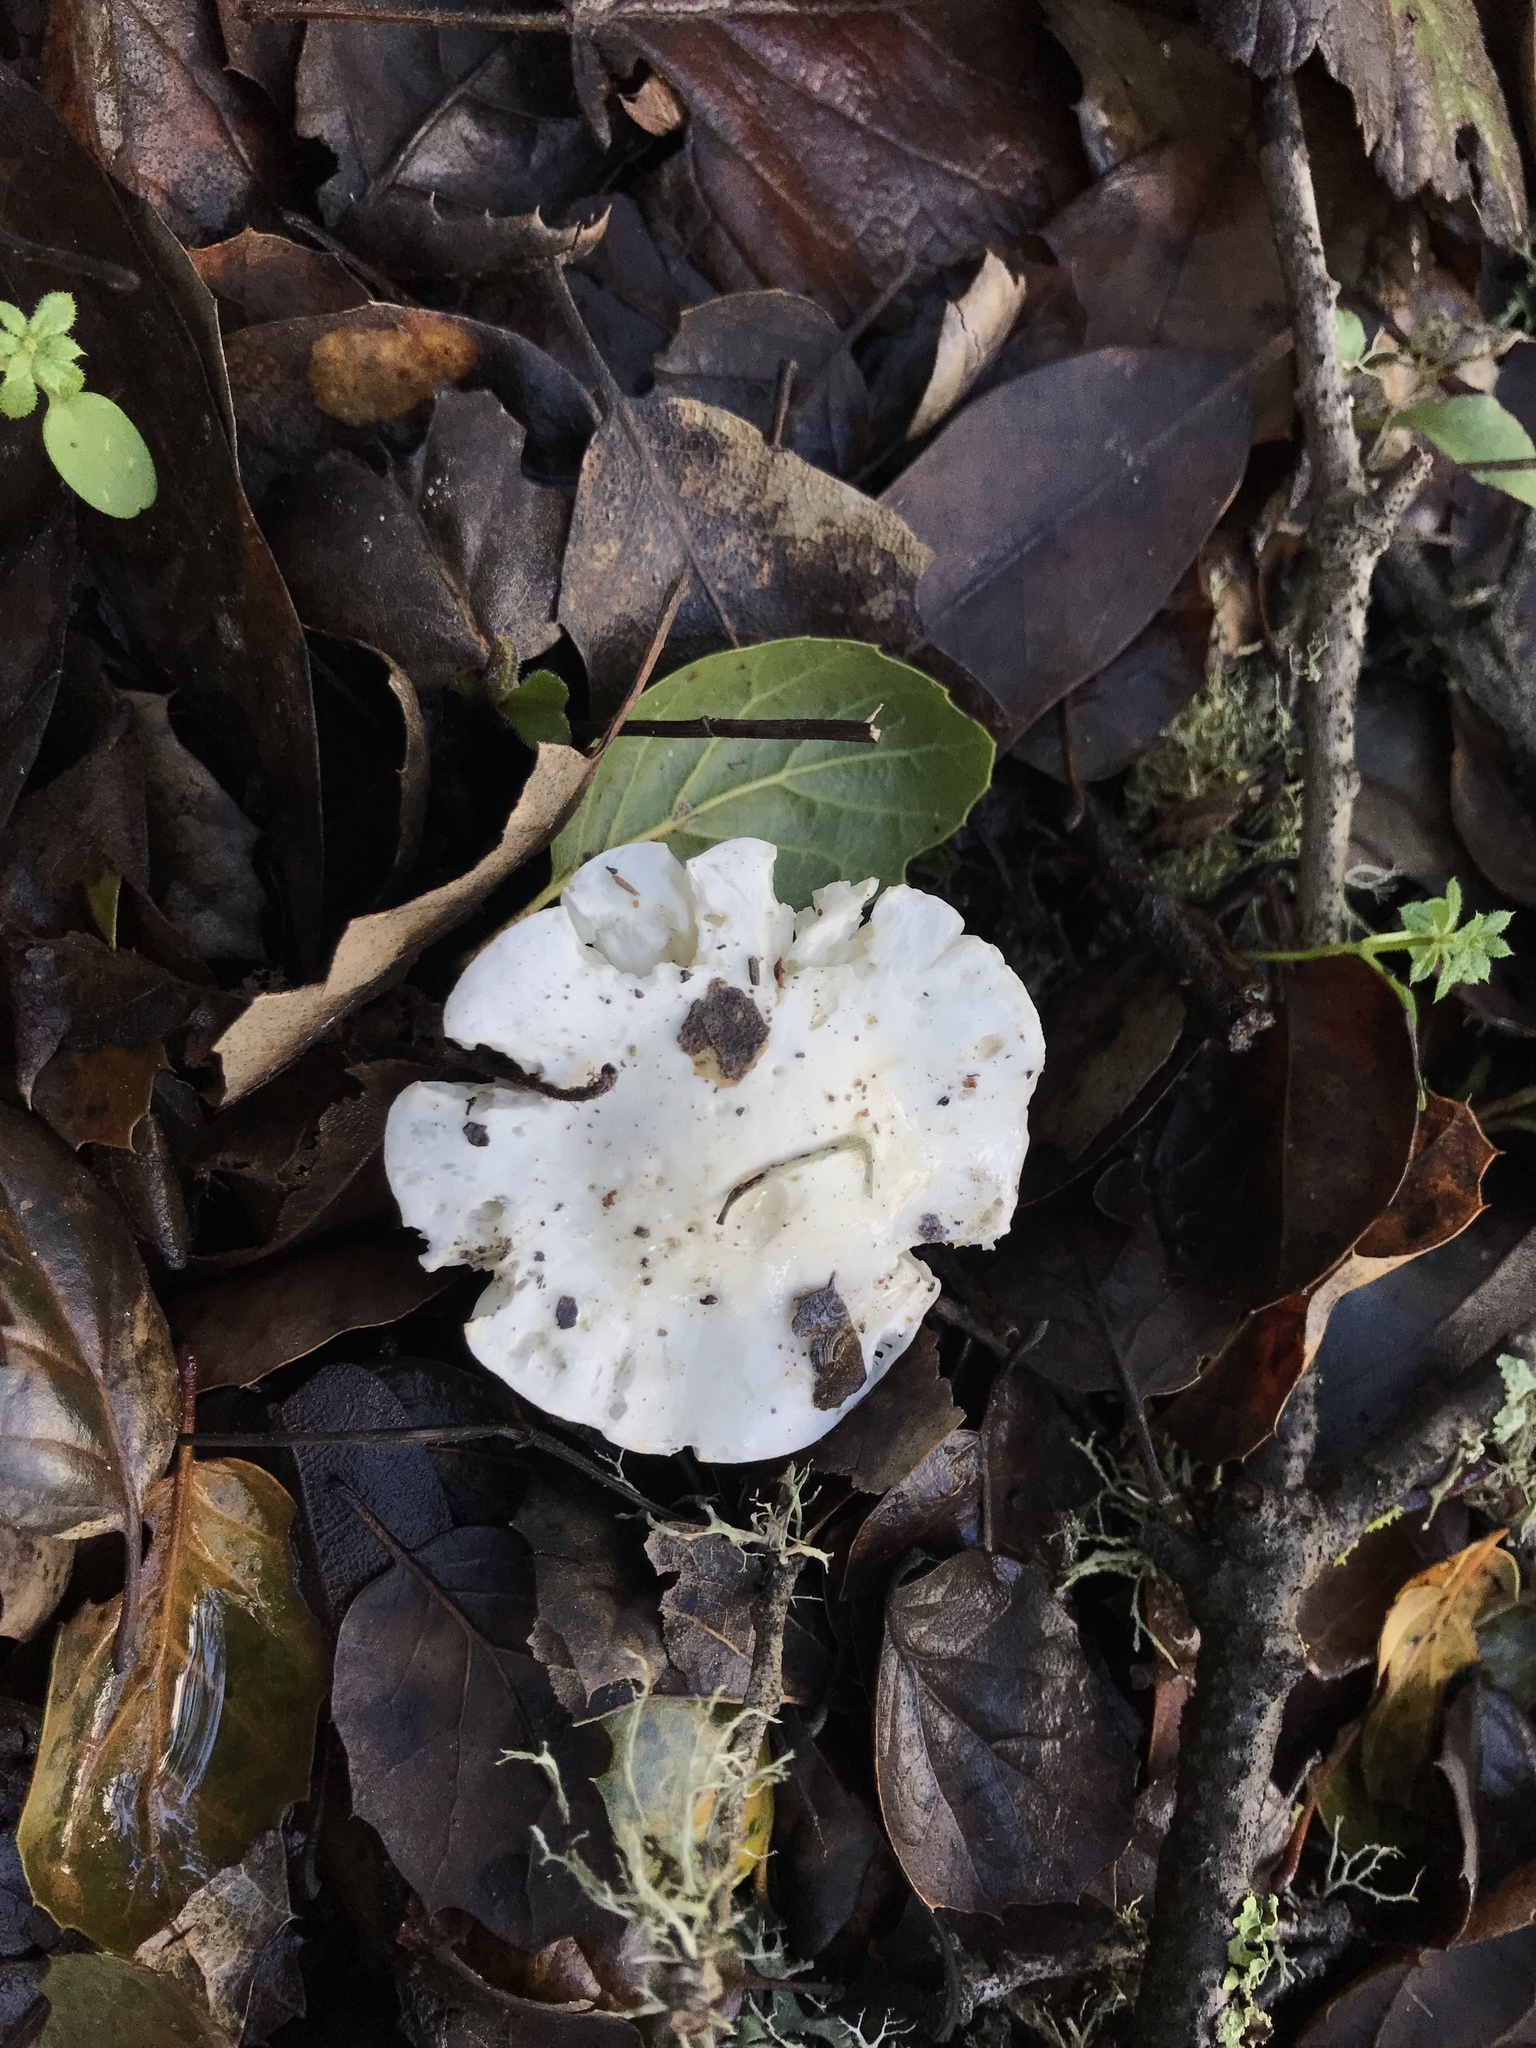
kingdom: Fungi
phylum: Basidiomycota
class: Agaricomycetes
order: Agaricales
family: Hygrophoraceae
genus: Cuphophyllus
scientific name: Cuphophyllus virgineus
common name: Snowy waxcap
